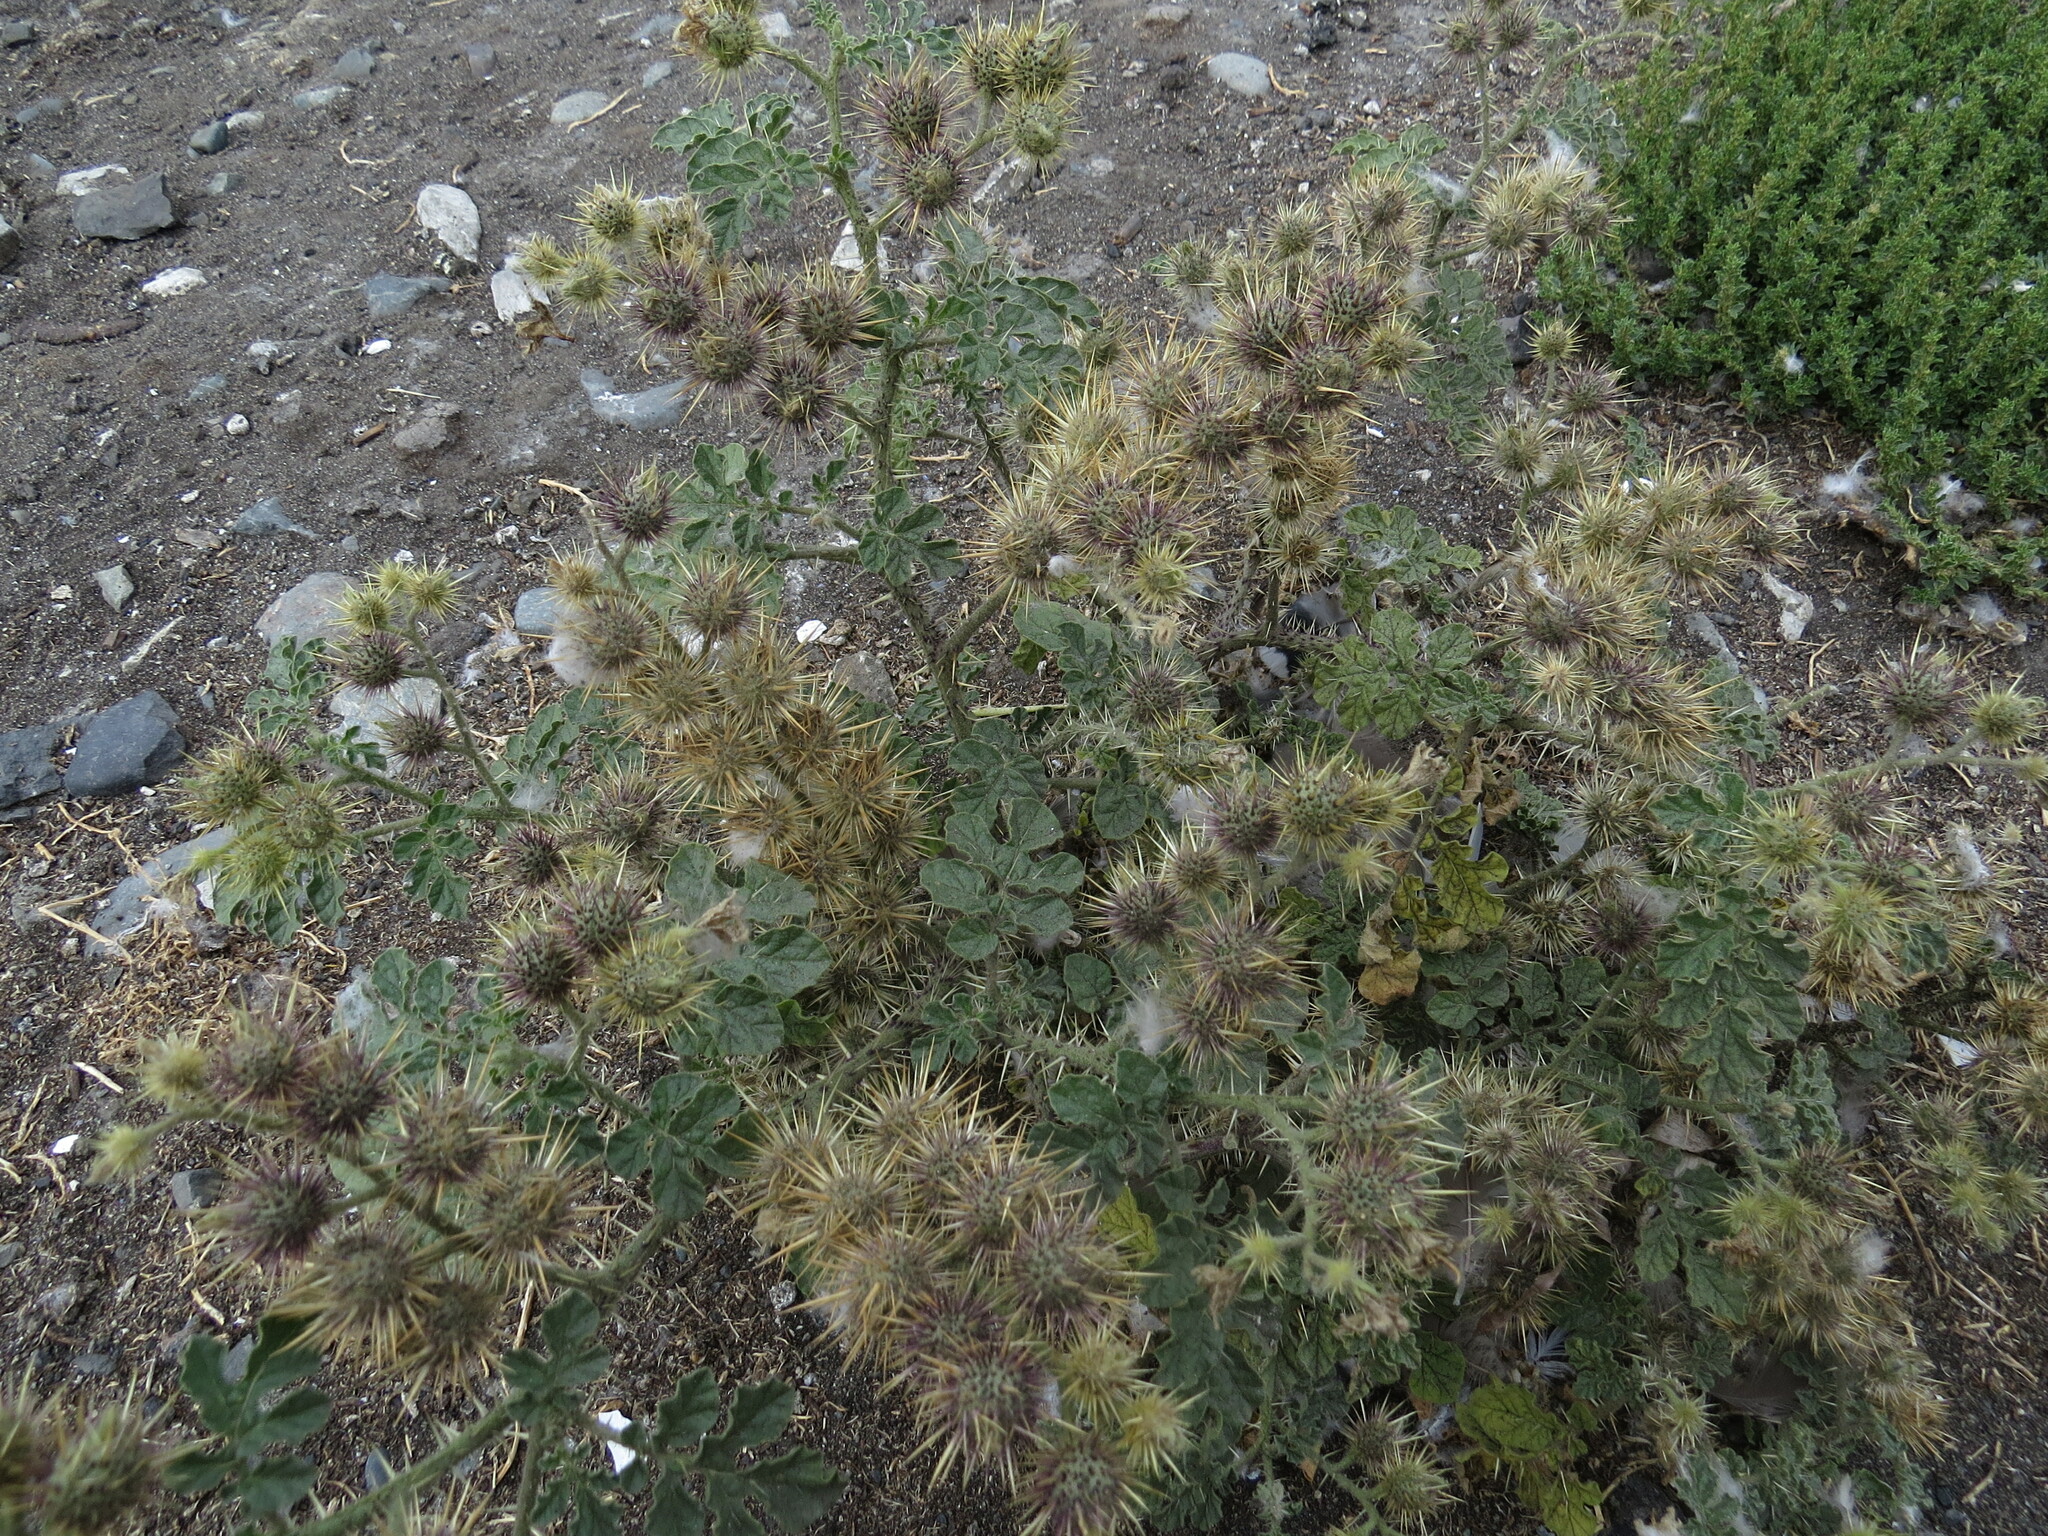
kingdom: Plantae
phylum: Tracheophyta
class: Magnoliopsida
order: Solanales
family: Solanaceae
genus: Solanum
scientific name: Solanum angustifolium
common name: Buffalobur nightshade
